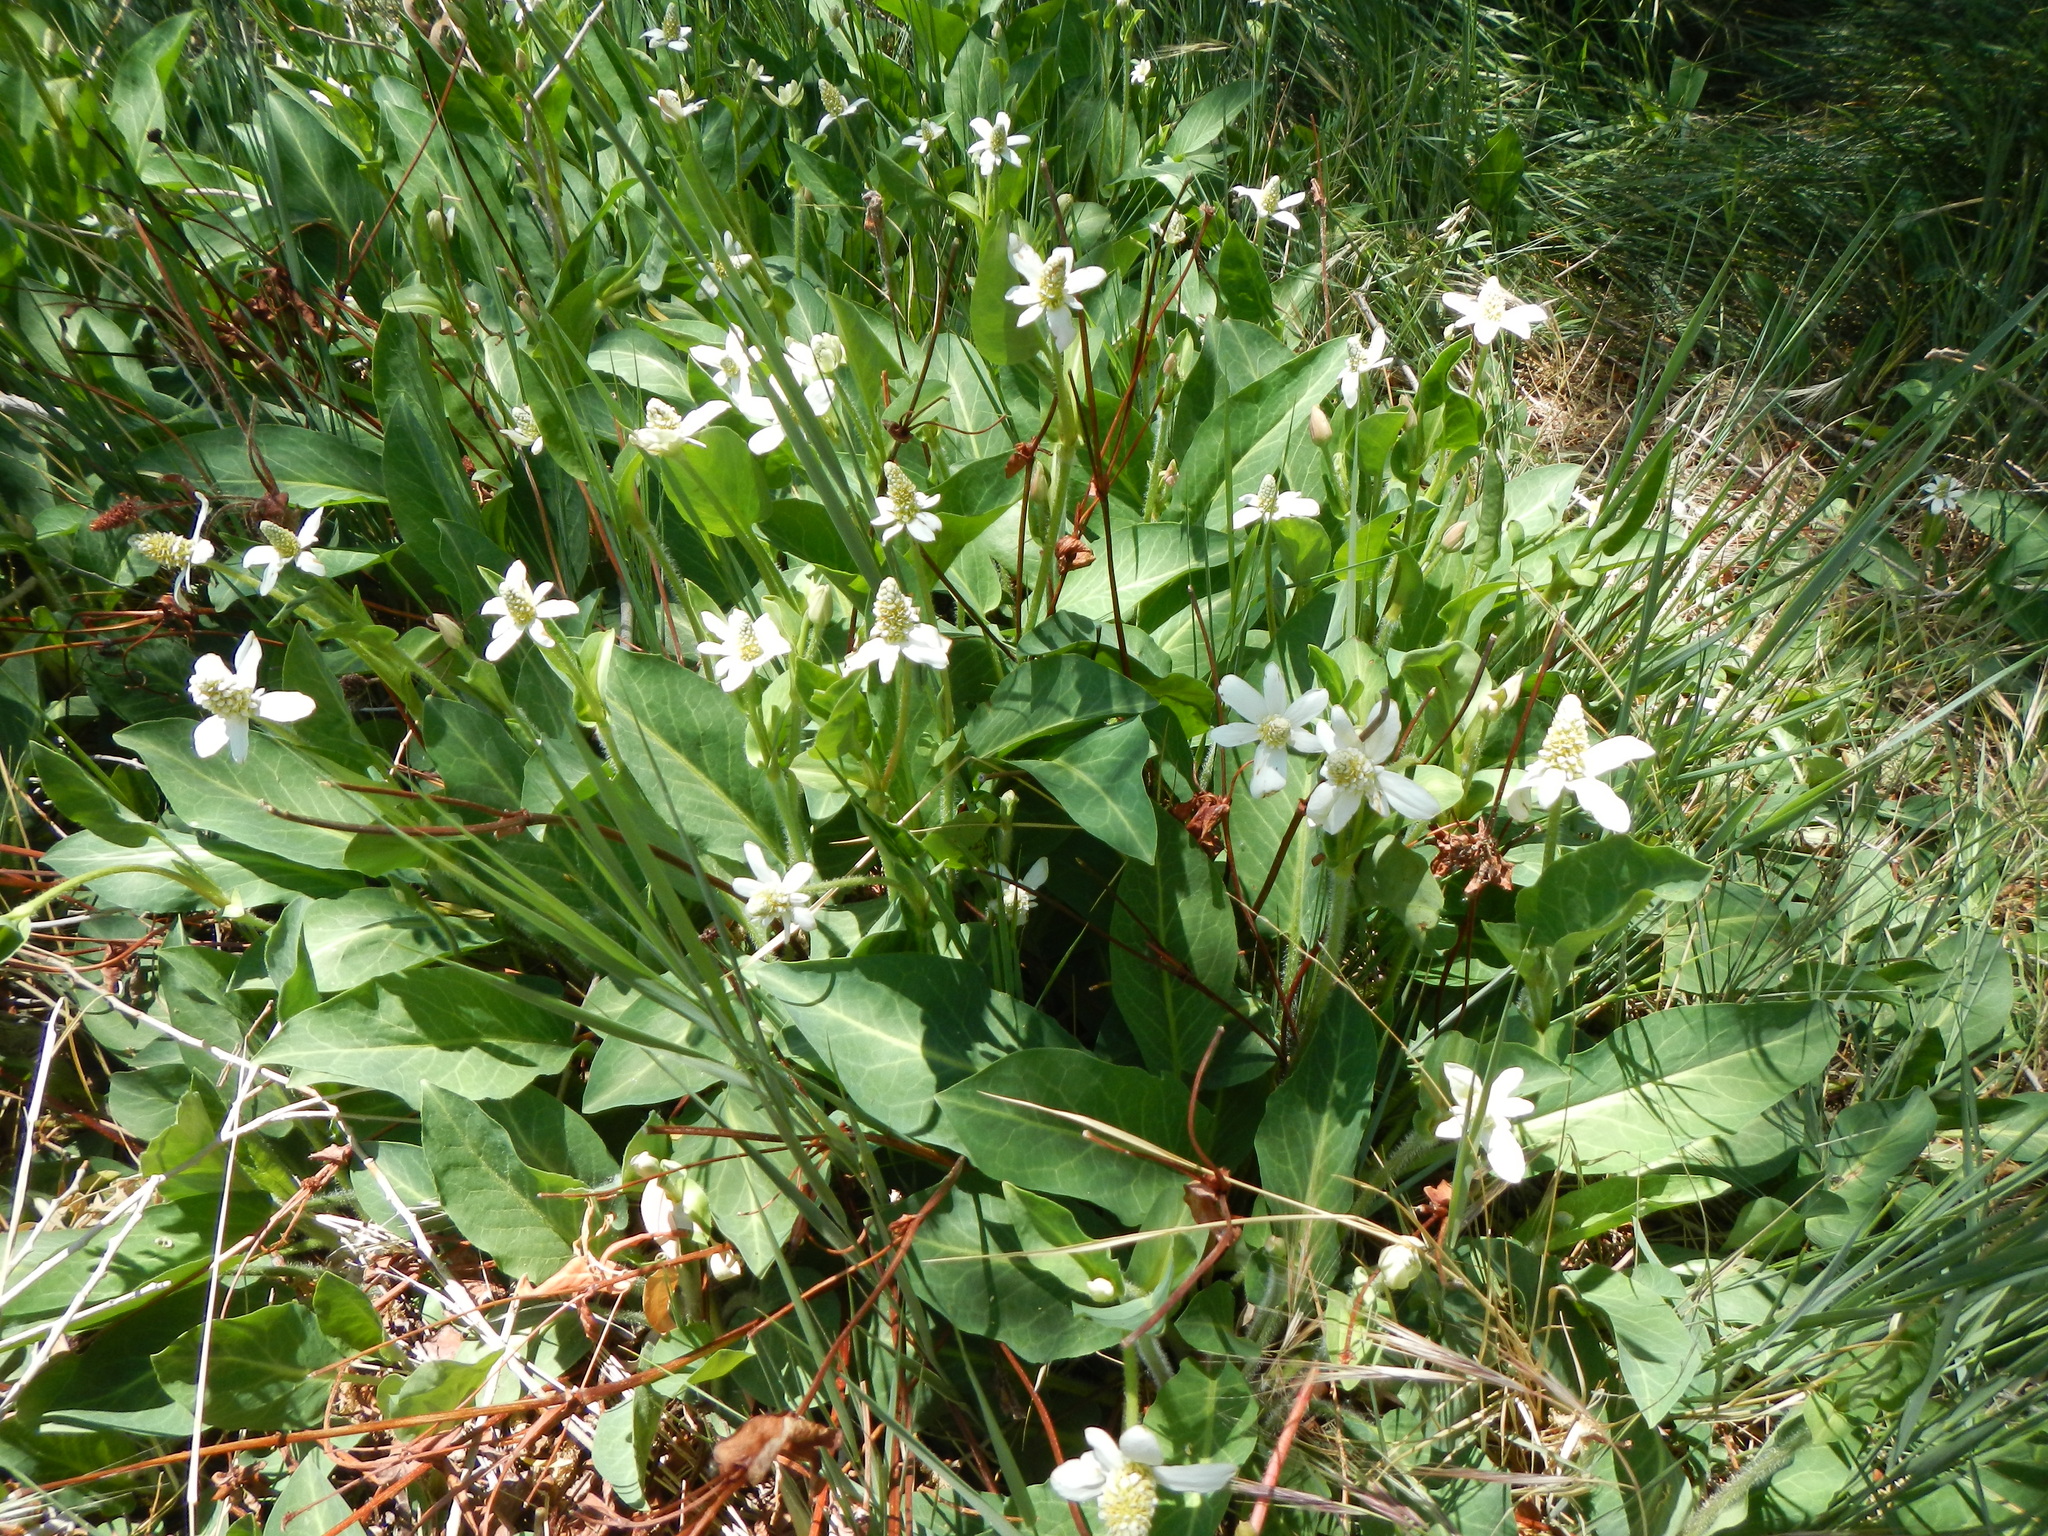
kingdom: Plantae
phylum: Tracheophyta
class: Magnoliopsida
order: Piperales
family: Saururaceae
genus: Anemopsis
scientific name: Anemopsis californica
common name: Apache-beads
